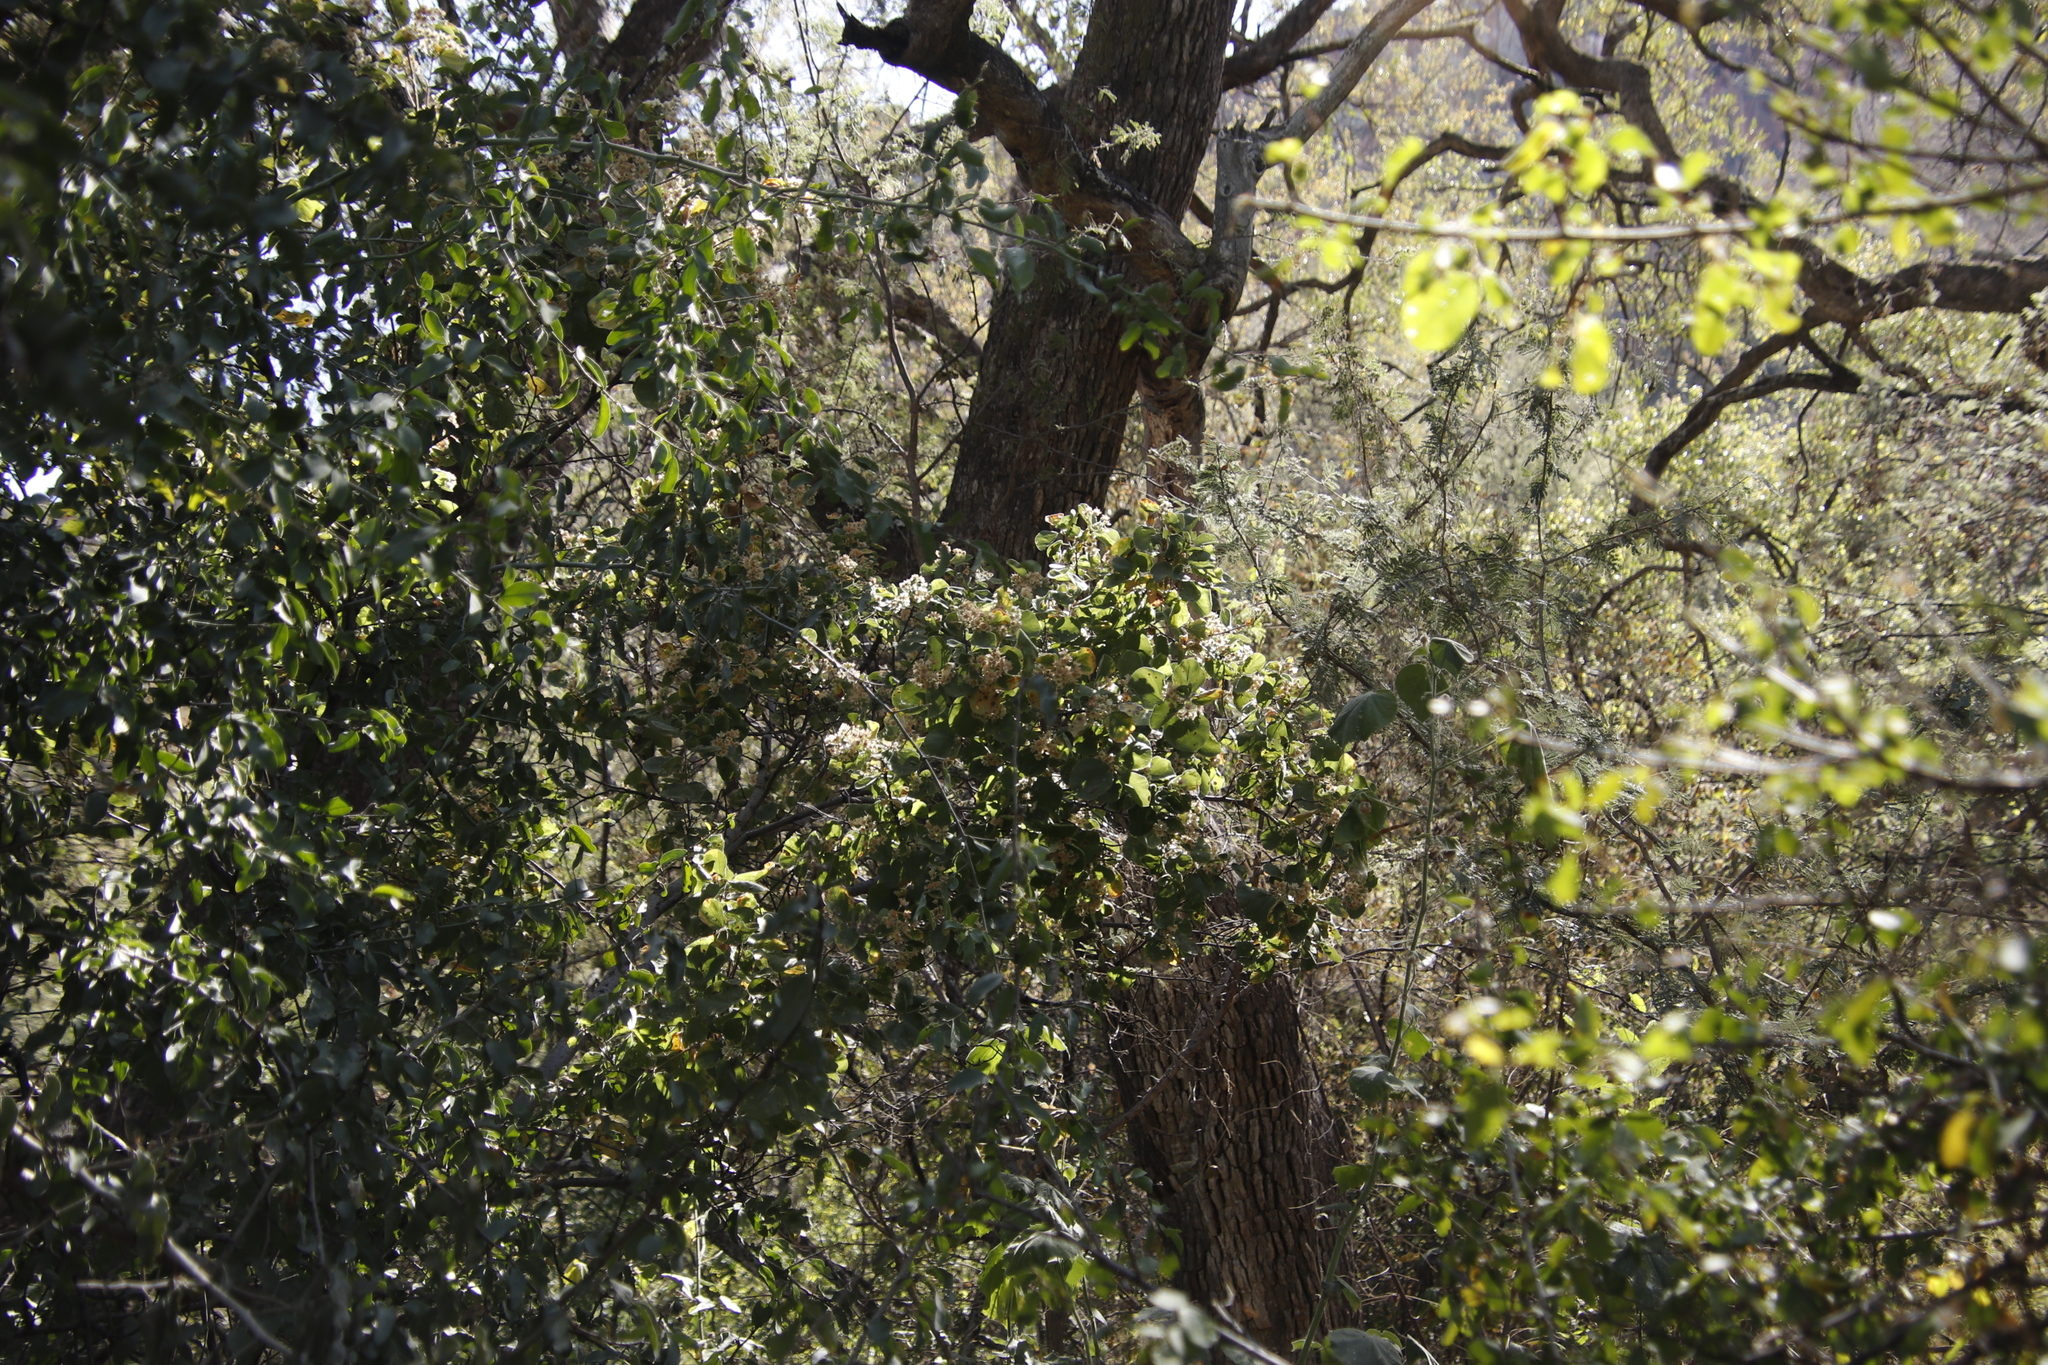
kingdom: Plantae
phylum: Tracheophyta
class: Magnoliopsida
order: Malvales
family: Malvaceae
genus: Dombeya
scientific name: Dombeya rotundifolia
